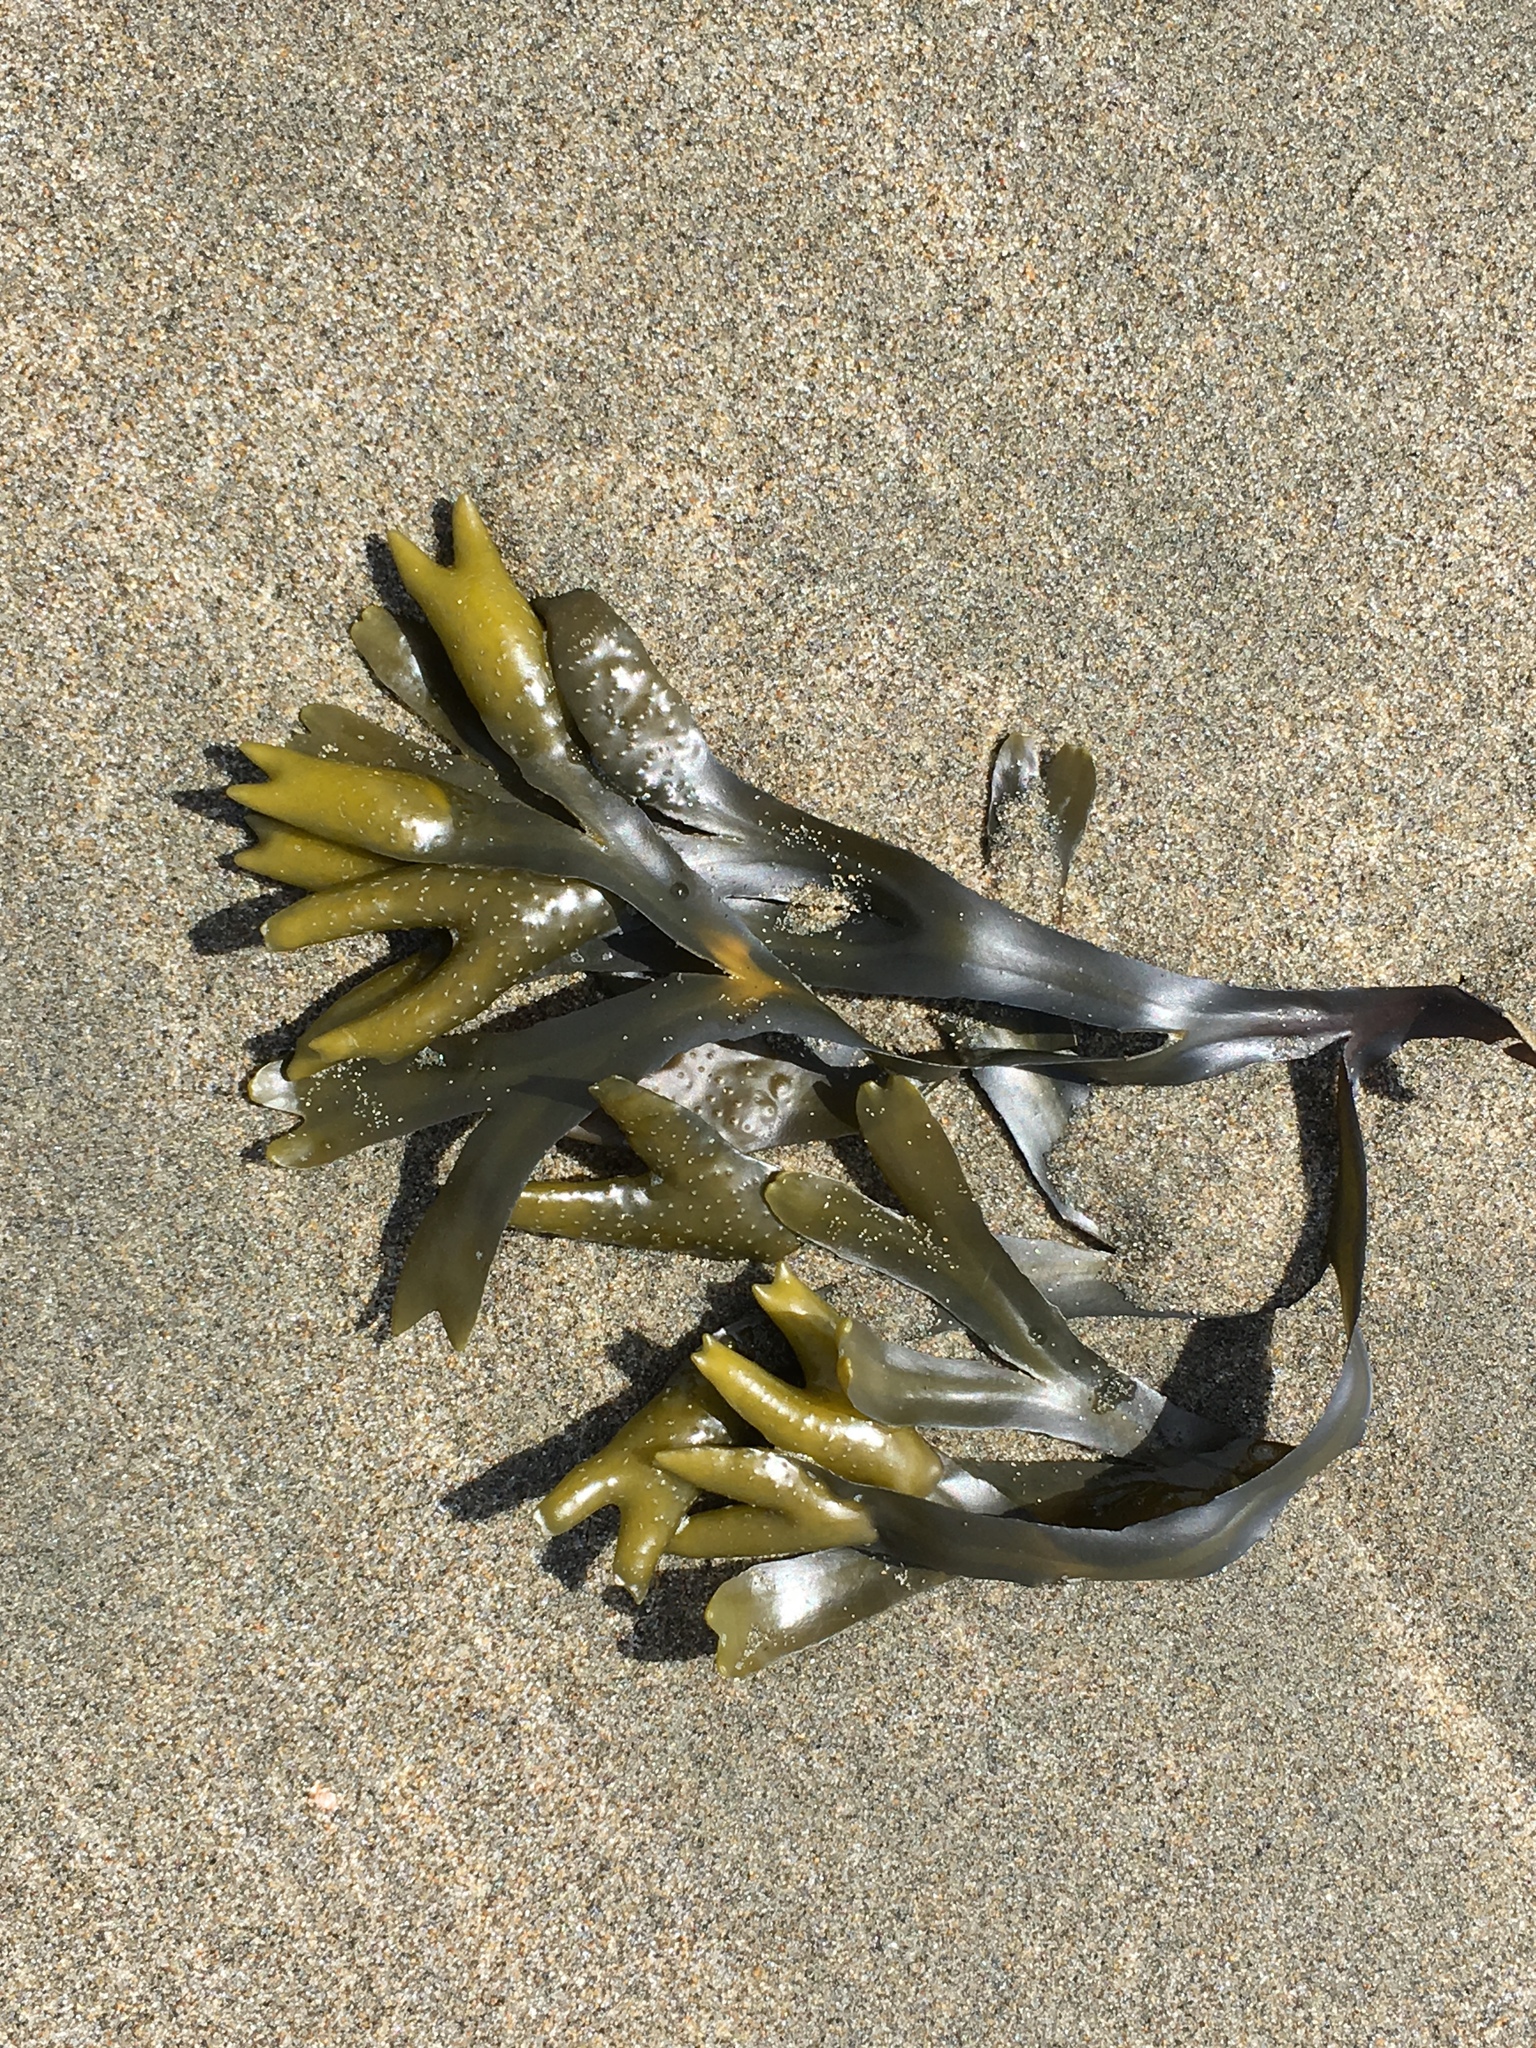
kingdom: Chromista
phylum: Ochrophyta
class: Phaeophyceae
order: Fucales
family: Fucaceae
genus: Fucus
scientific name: Fucus distichus
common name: Rockweed
